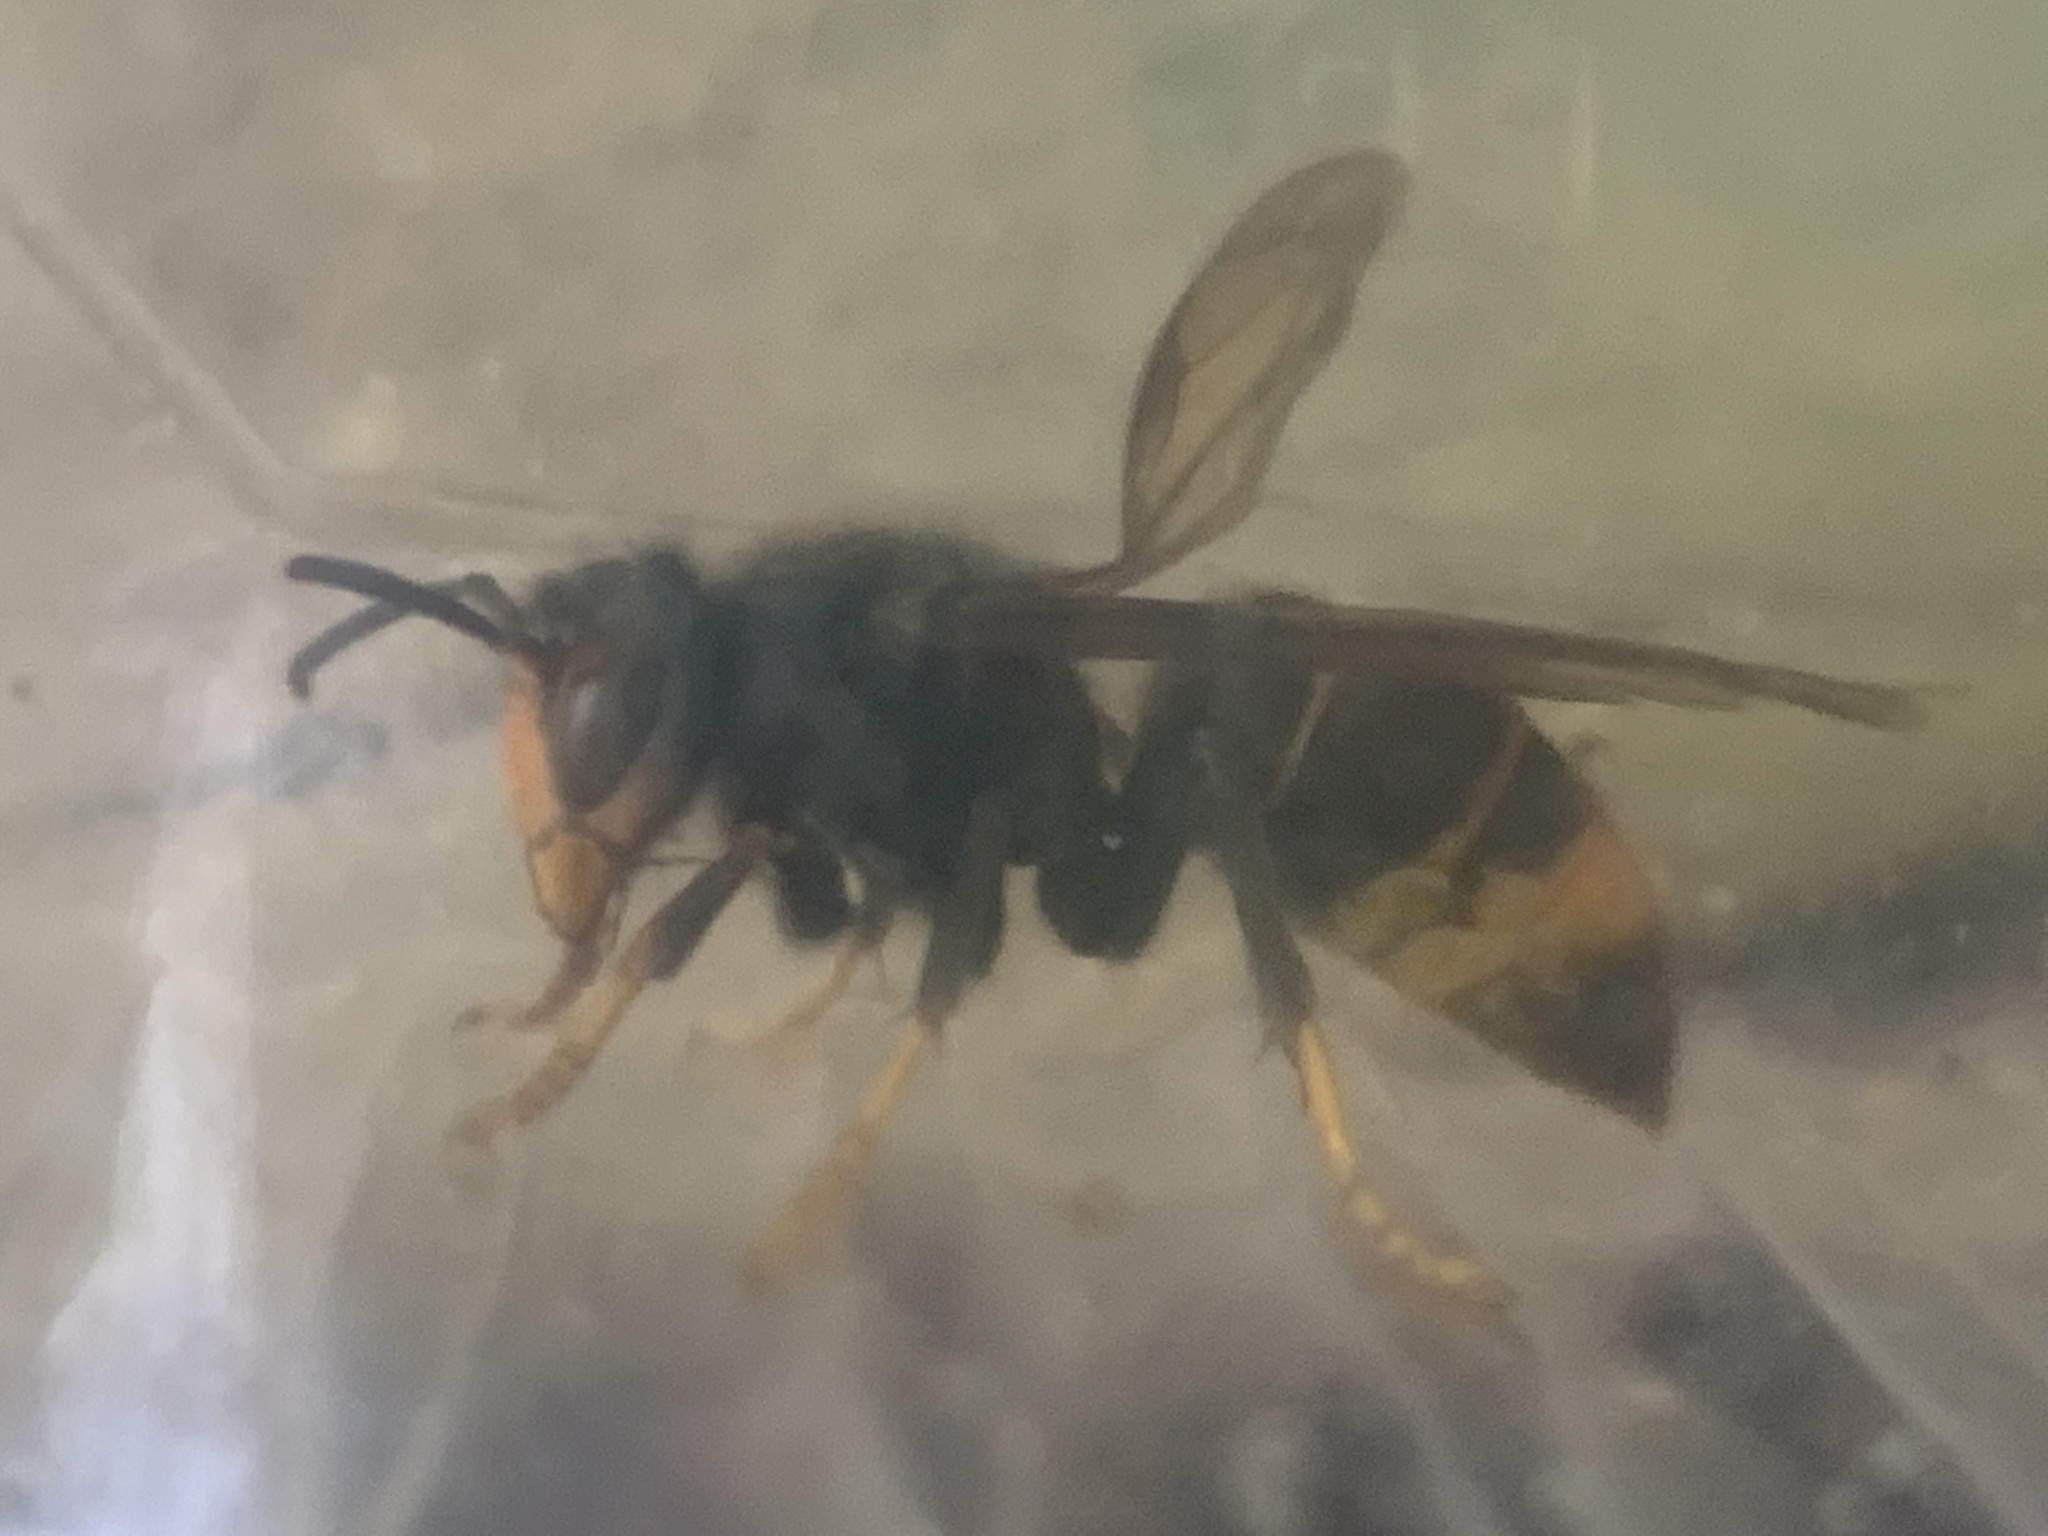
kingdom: Animalia
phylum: Arthropoda
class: Insecta
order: Hymenoptera
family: Vespidae
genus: Vespa
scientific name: Vespa velutina
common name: Asian hornet
